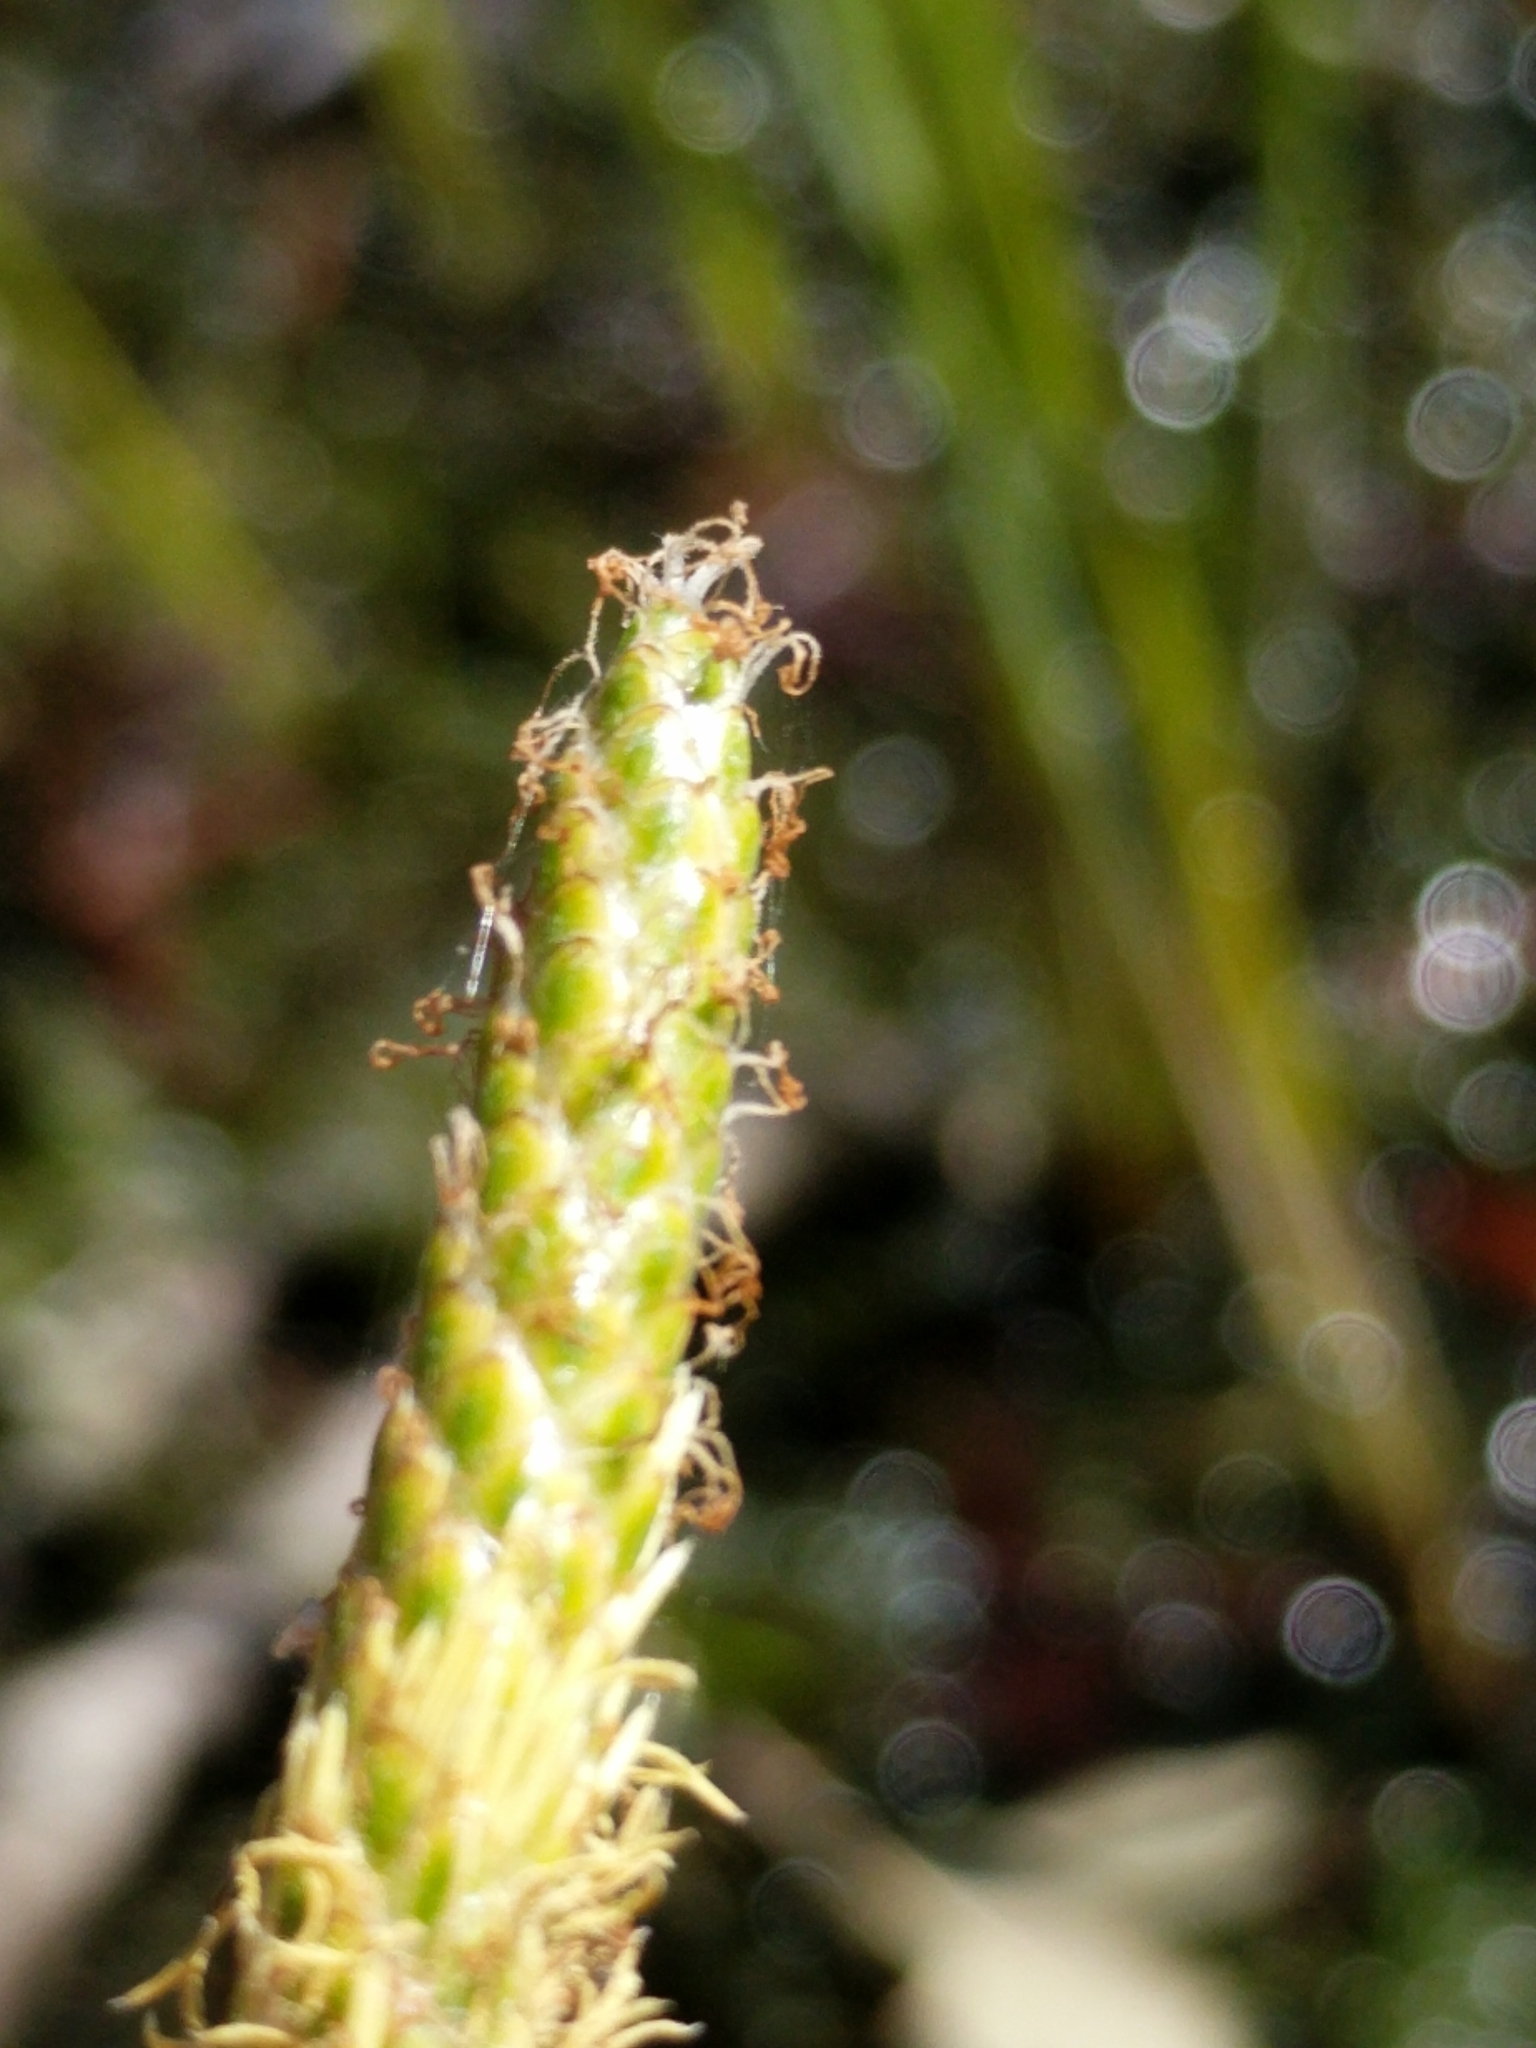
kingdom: Plantae
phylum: Tracheophyta
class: Liliopsida
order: Poales
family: Cyperaceae
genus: Eleocharis
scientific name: Eleocharis interstincta
